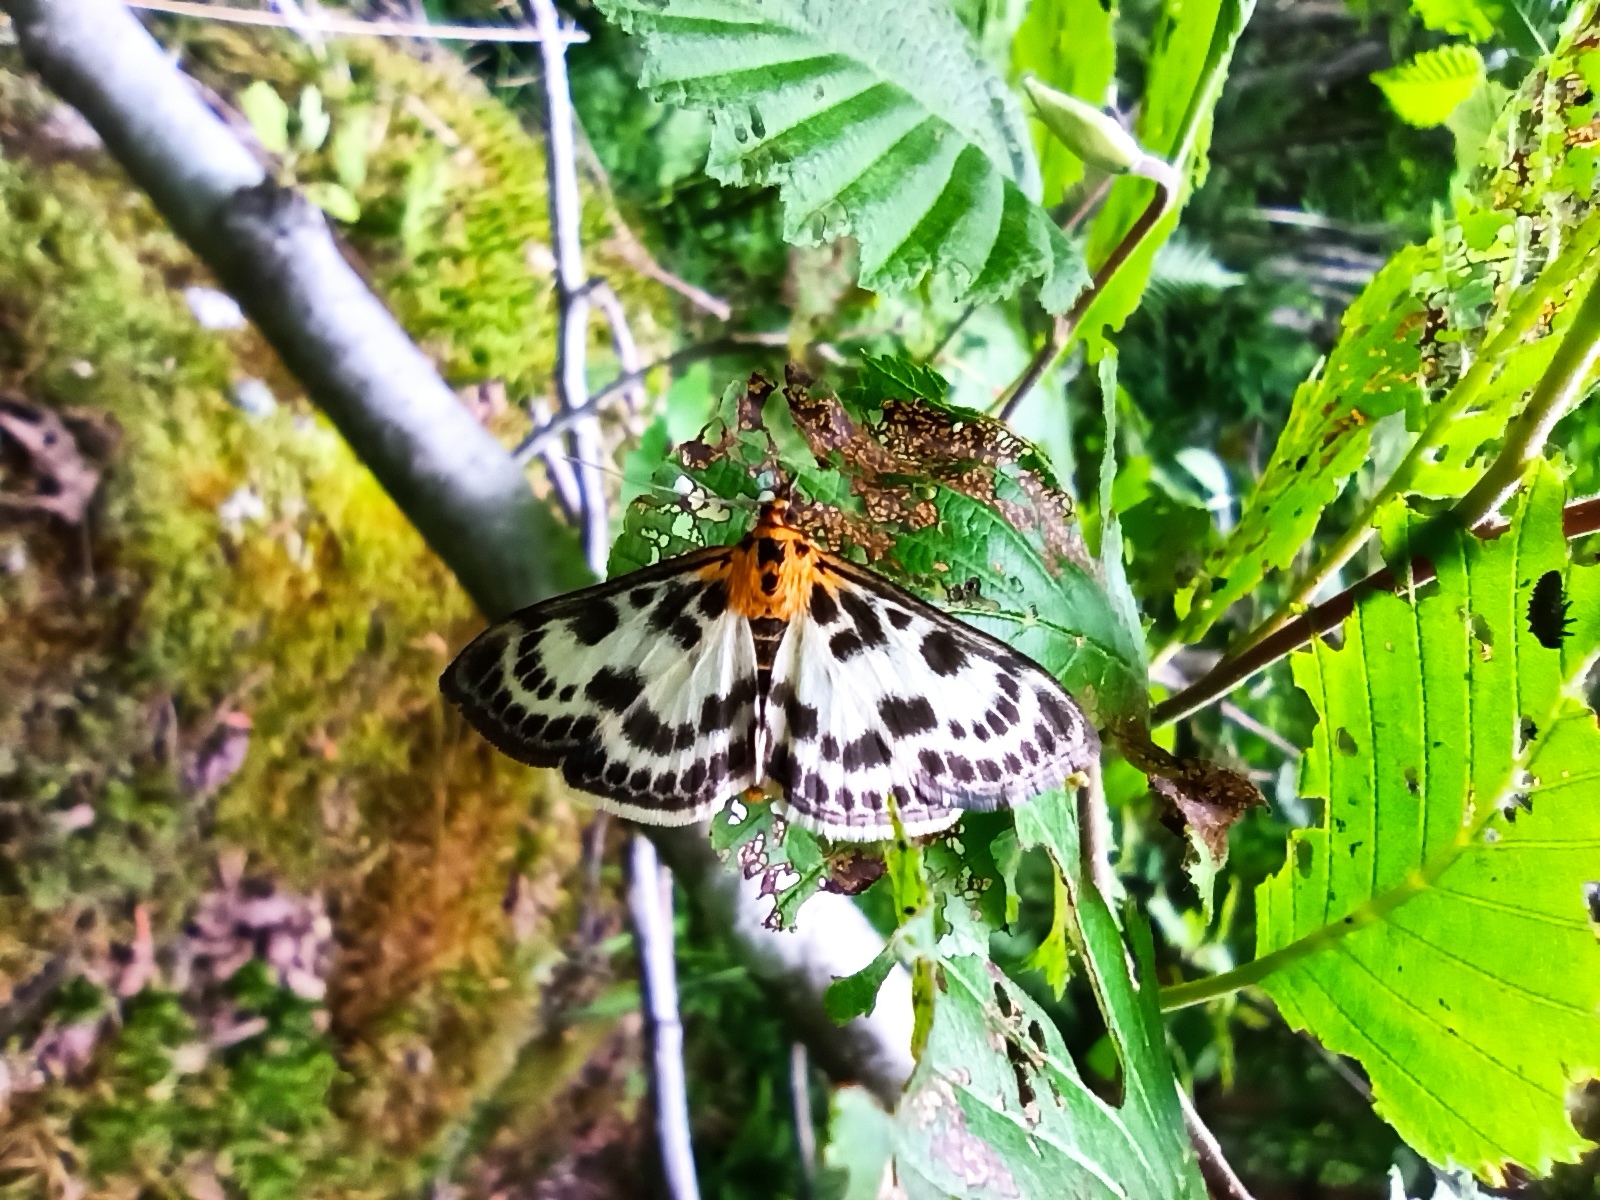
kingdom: Animalia
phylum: Arthropoda
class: Insecta
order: Lepidoptera
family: Crambidae
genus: Anania
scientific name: Anania hortulata
